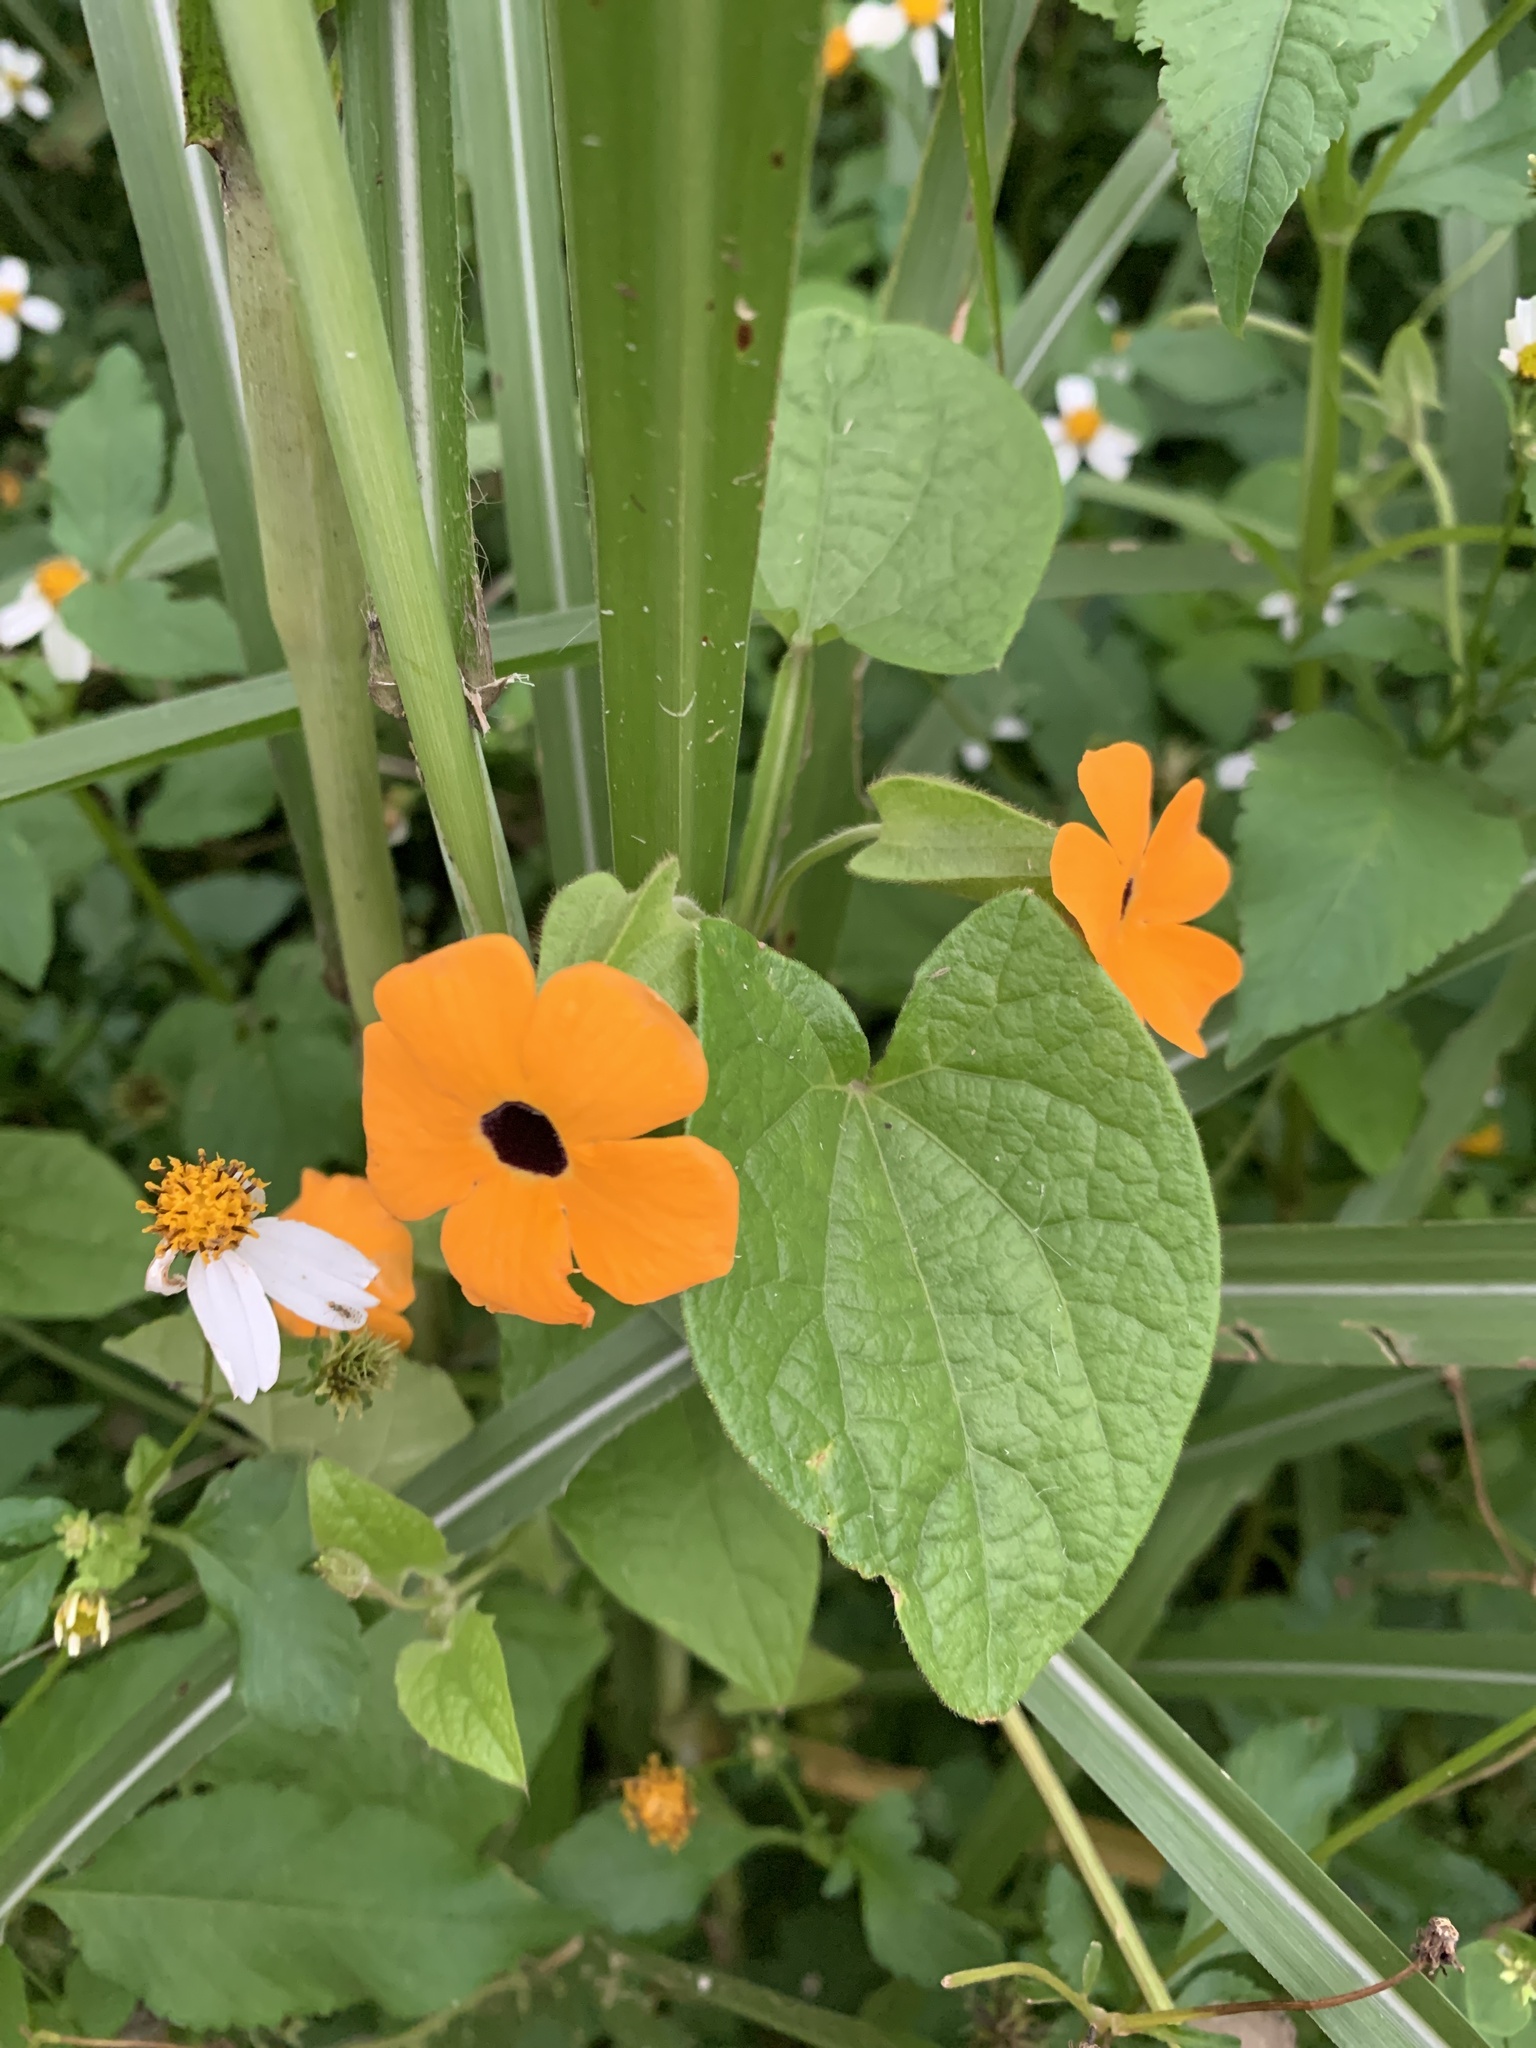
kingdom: Plantae
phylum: Tracheophyta
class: Magnoliopsida
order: Lamiales
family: Acanthaceae
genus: Thunbergia
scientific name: Thunbergia alata
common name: Blackeyed susan vine
